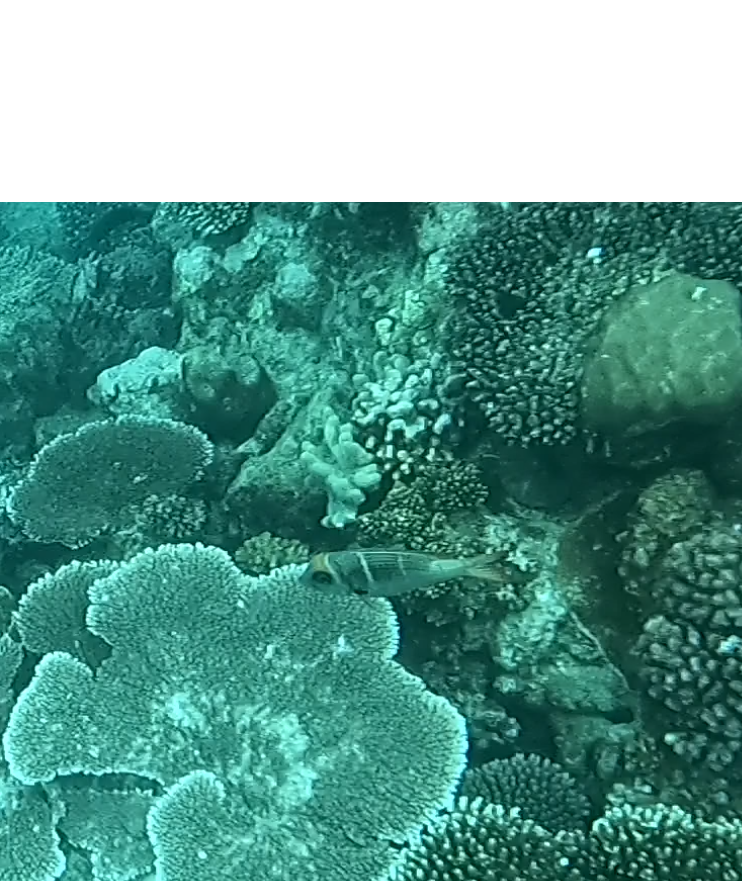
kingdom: Animalia
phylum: Chordata
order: Perciformes
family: Lethrinidae
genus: Monotaxis
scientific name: Monotaxis heterodon
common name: Redfin emperor
